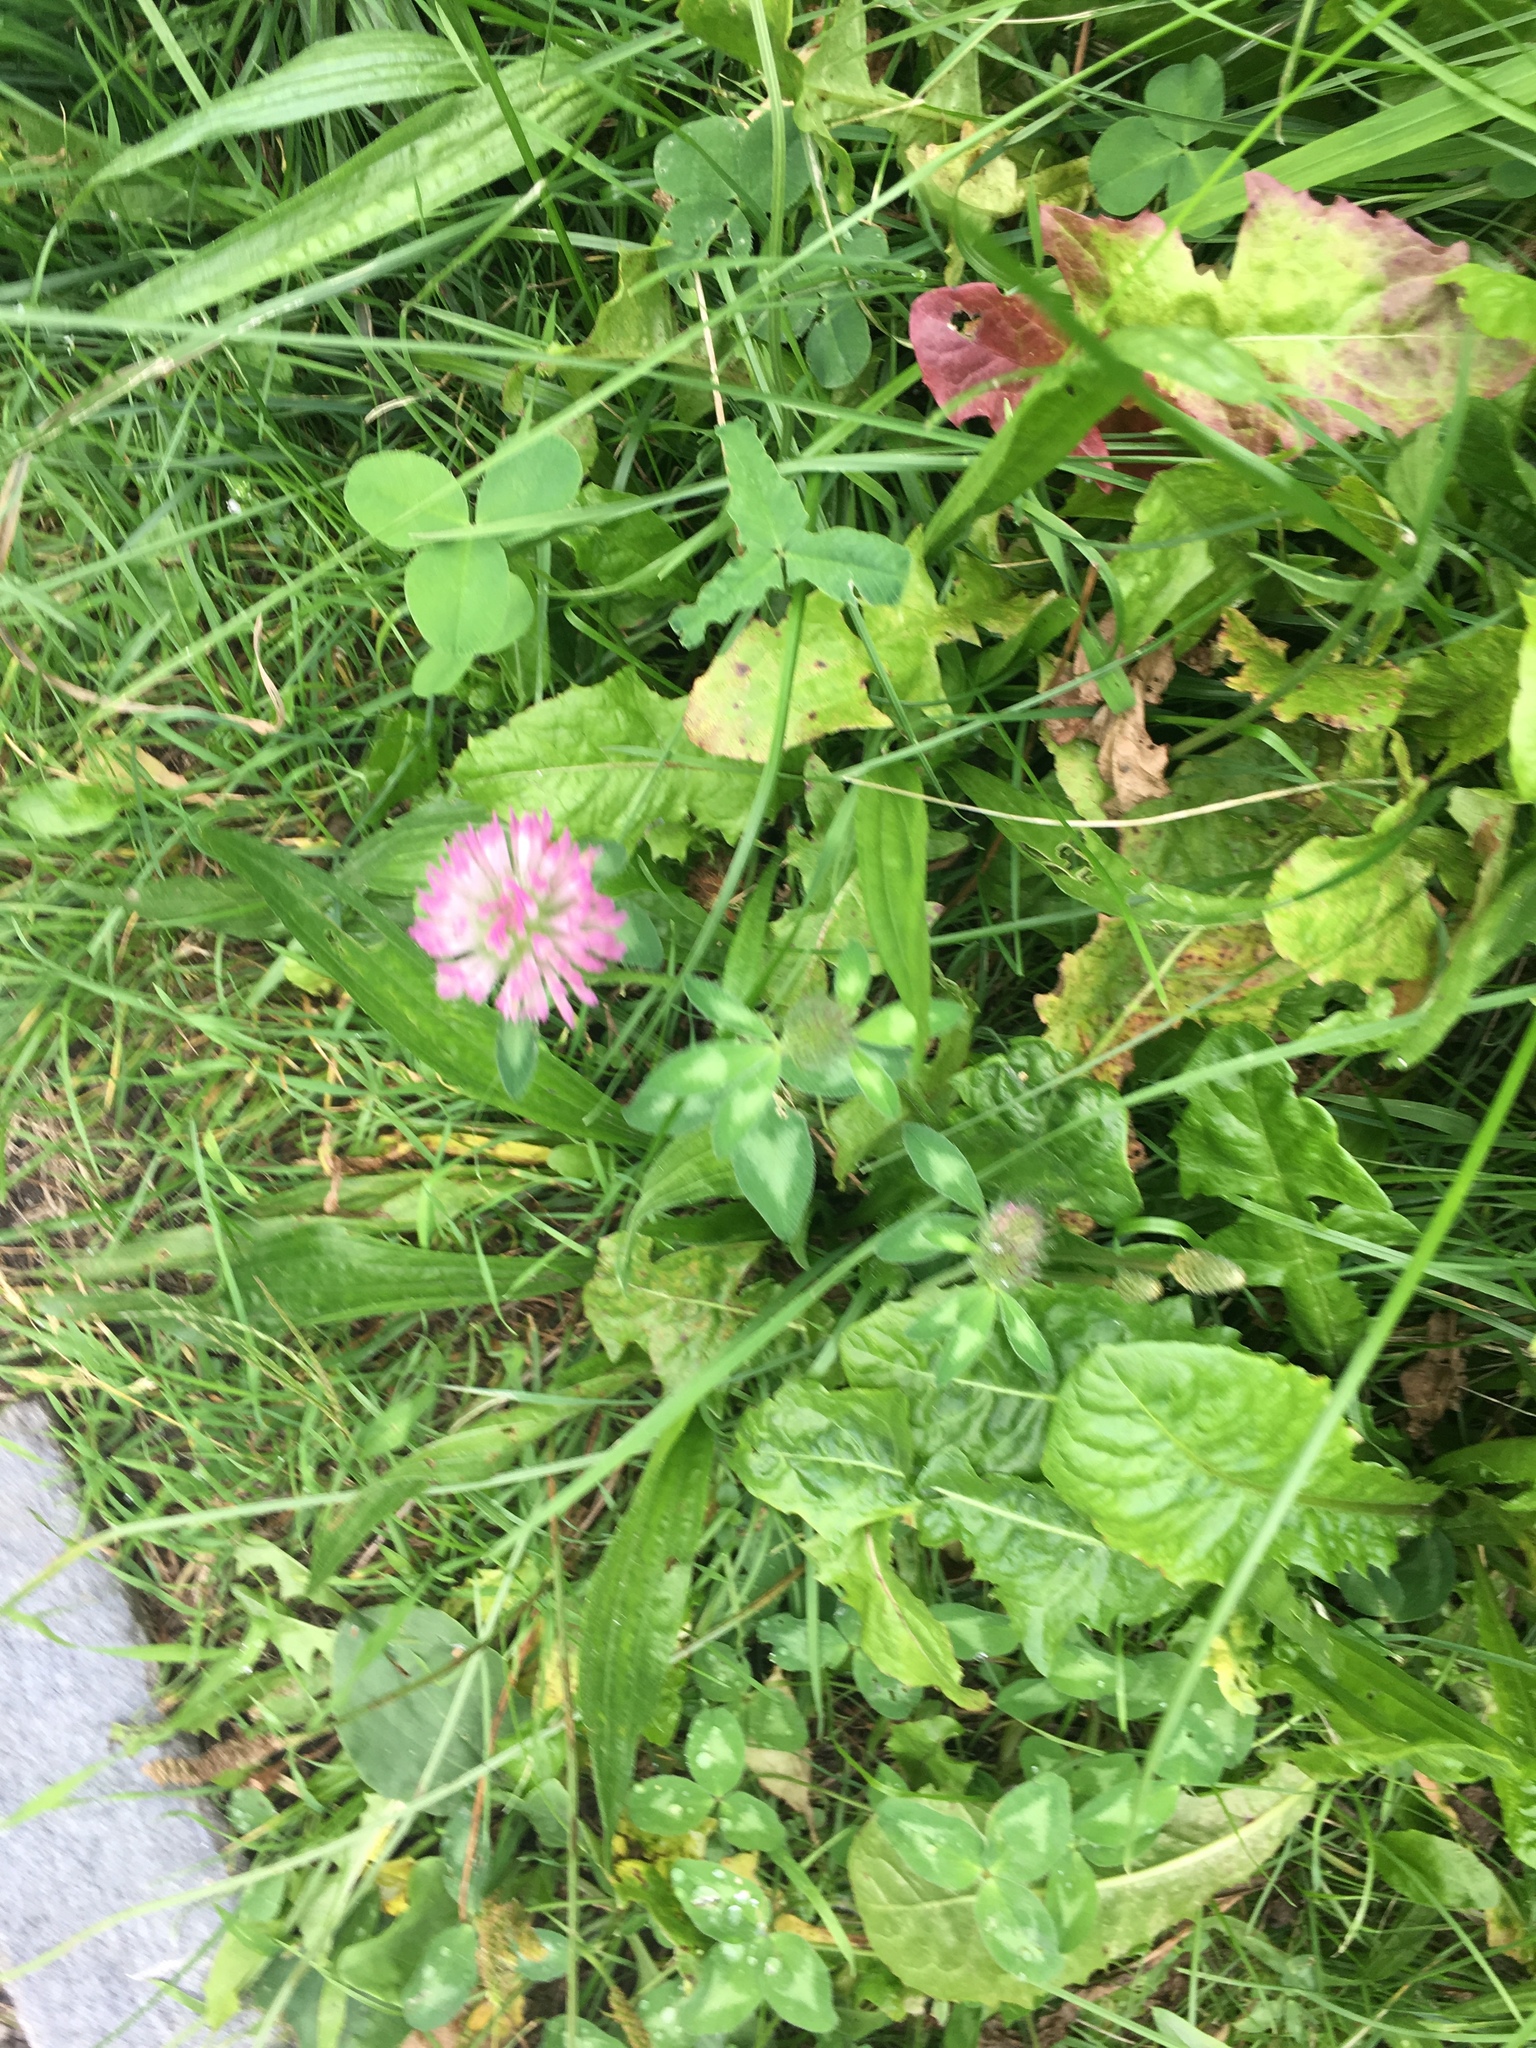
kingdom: Plantae
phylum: Tracheophyta
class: Magnoliopsida
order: Fabales
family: Fabaceae
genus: Trifolium
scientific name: Trifolium pratense
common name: Red clover
